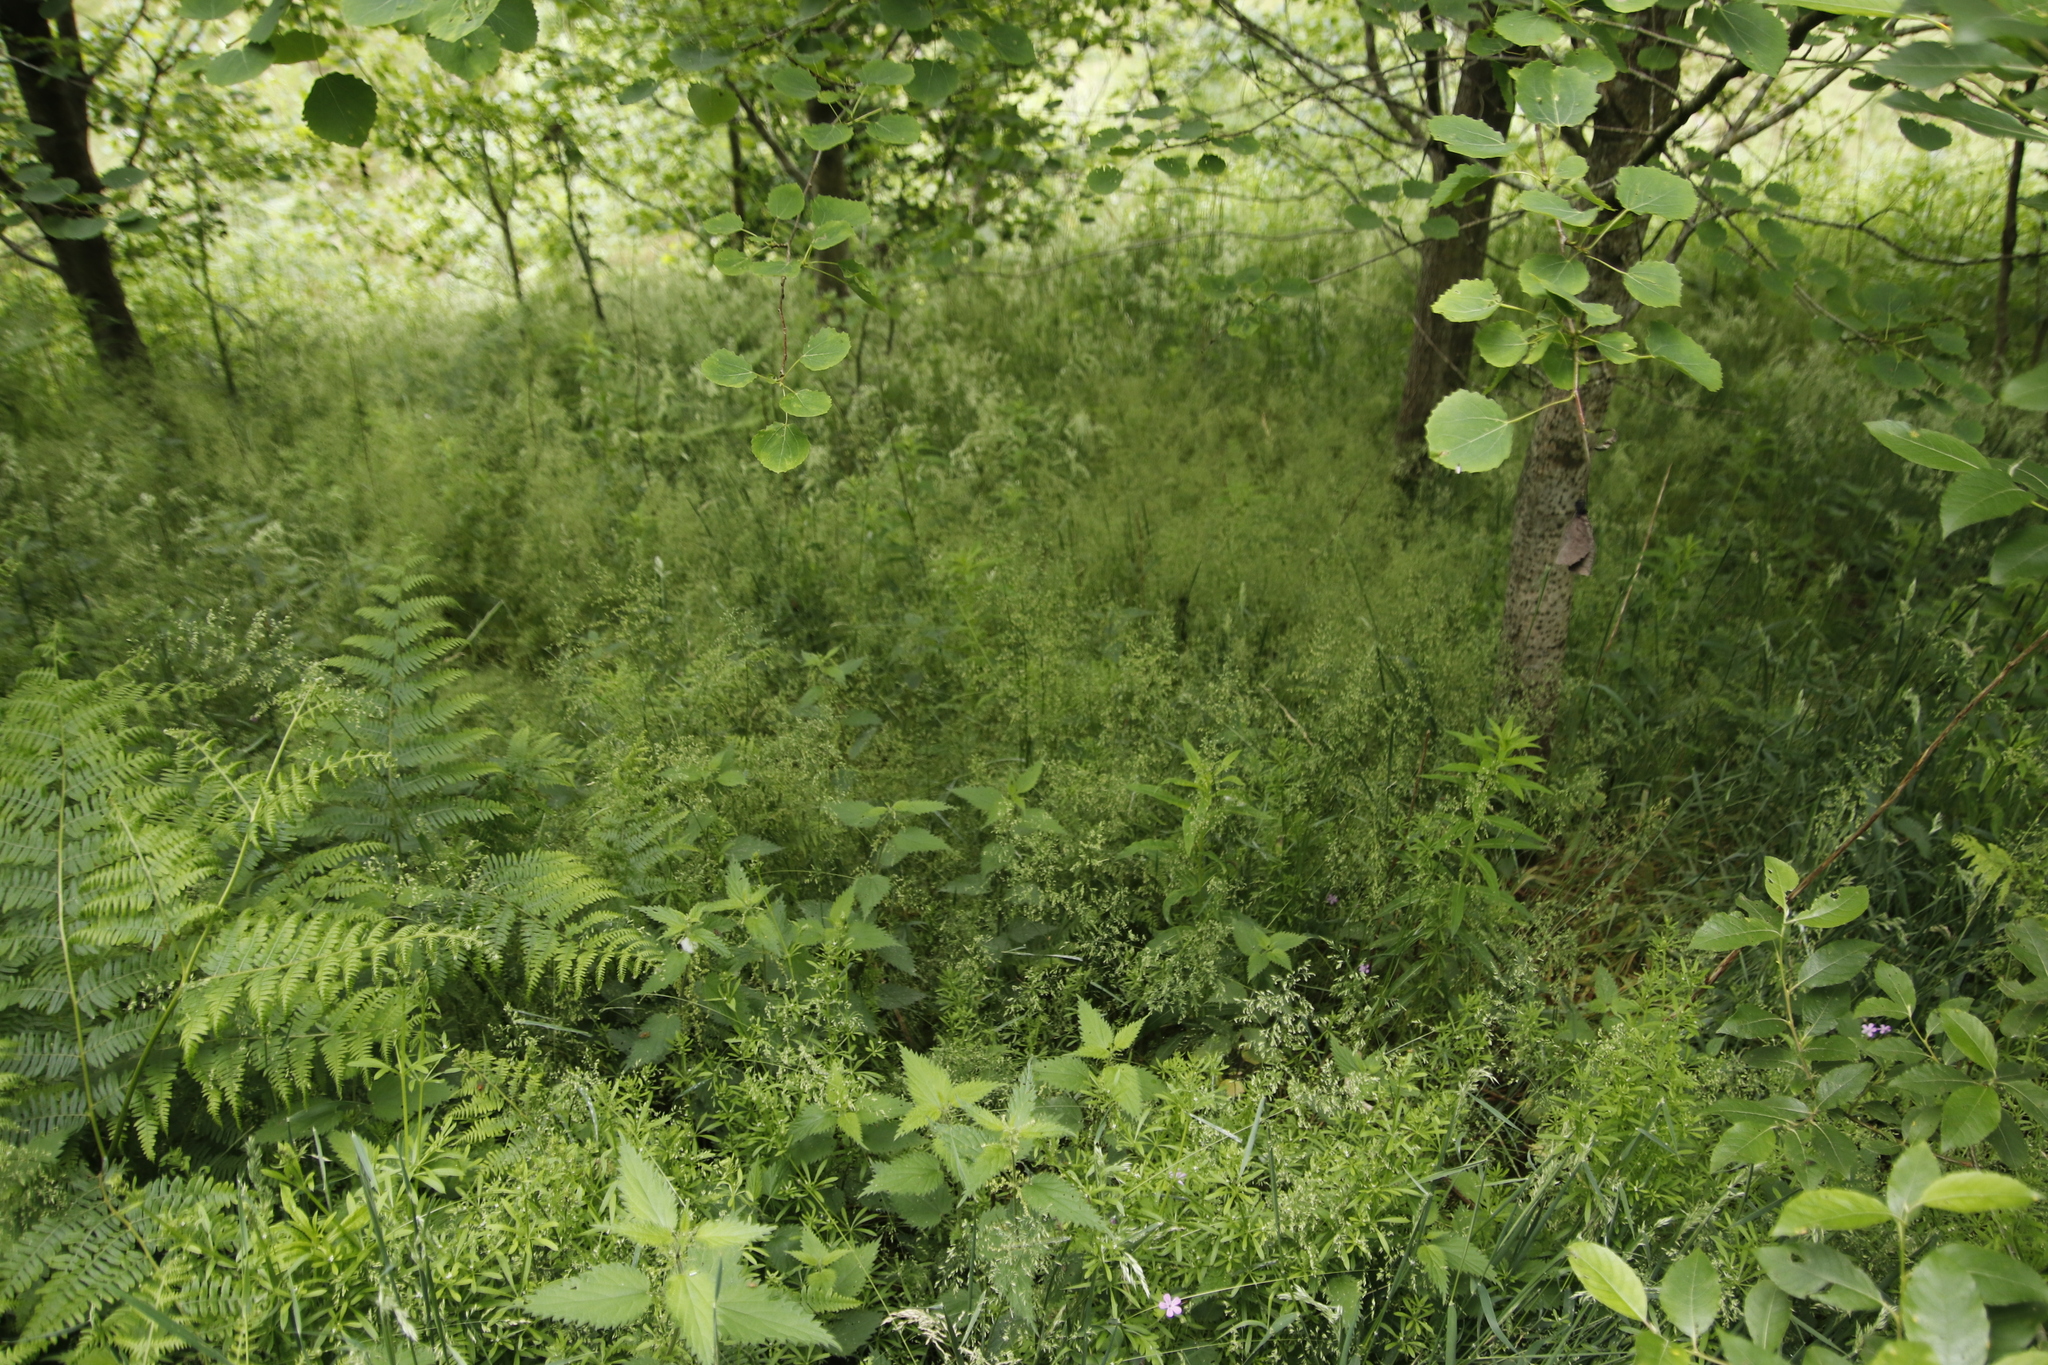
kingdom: Plantae
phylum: Tracheophyta
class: Magnoliopsida
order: Gentianales
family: Rubiaceae
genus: Galium
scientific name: Galium aparine
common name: Cleavers
